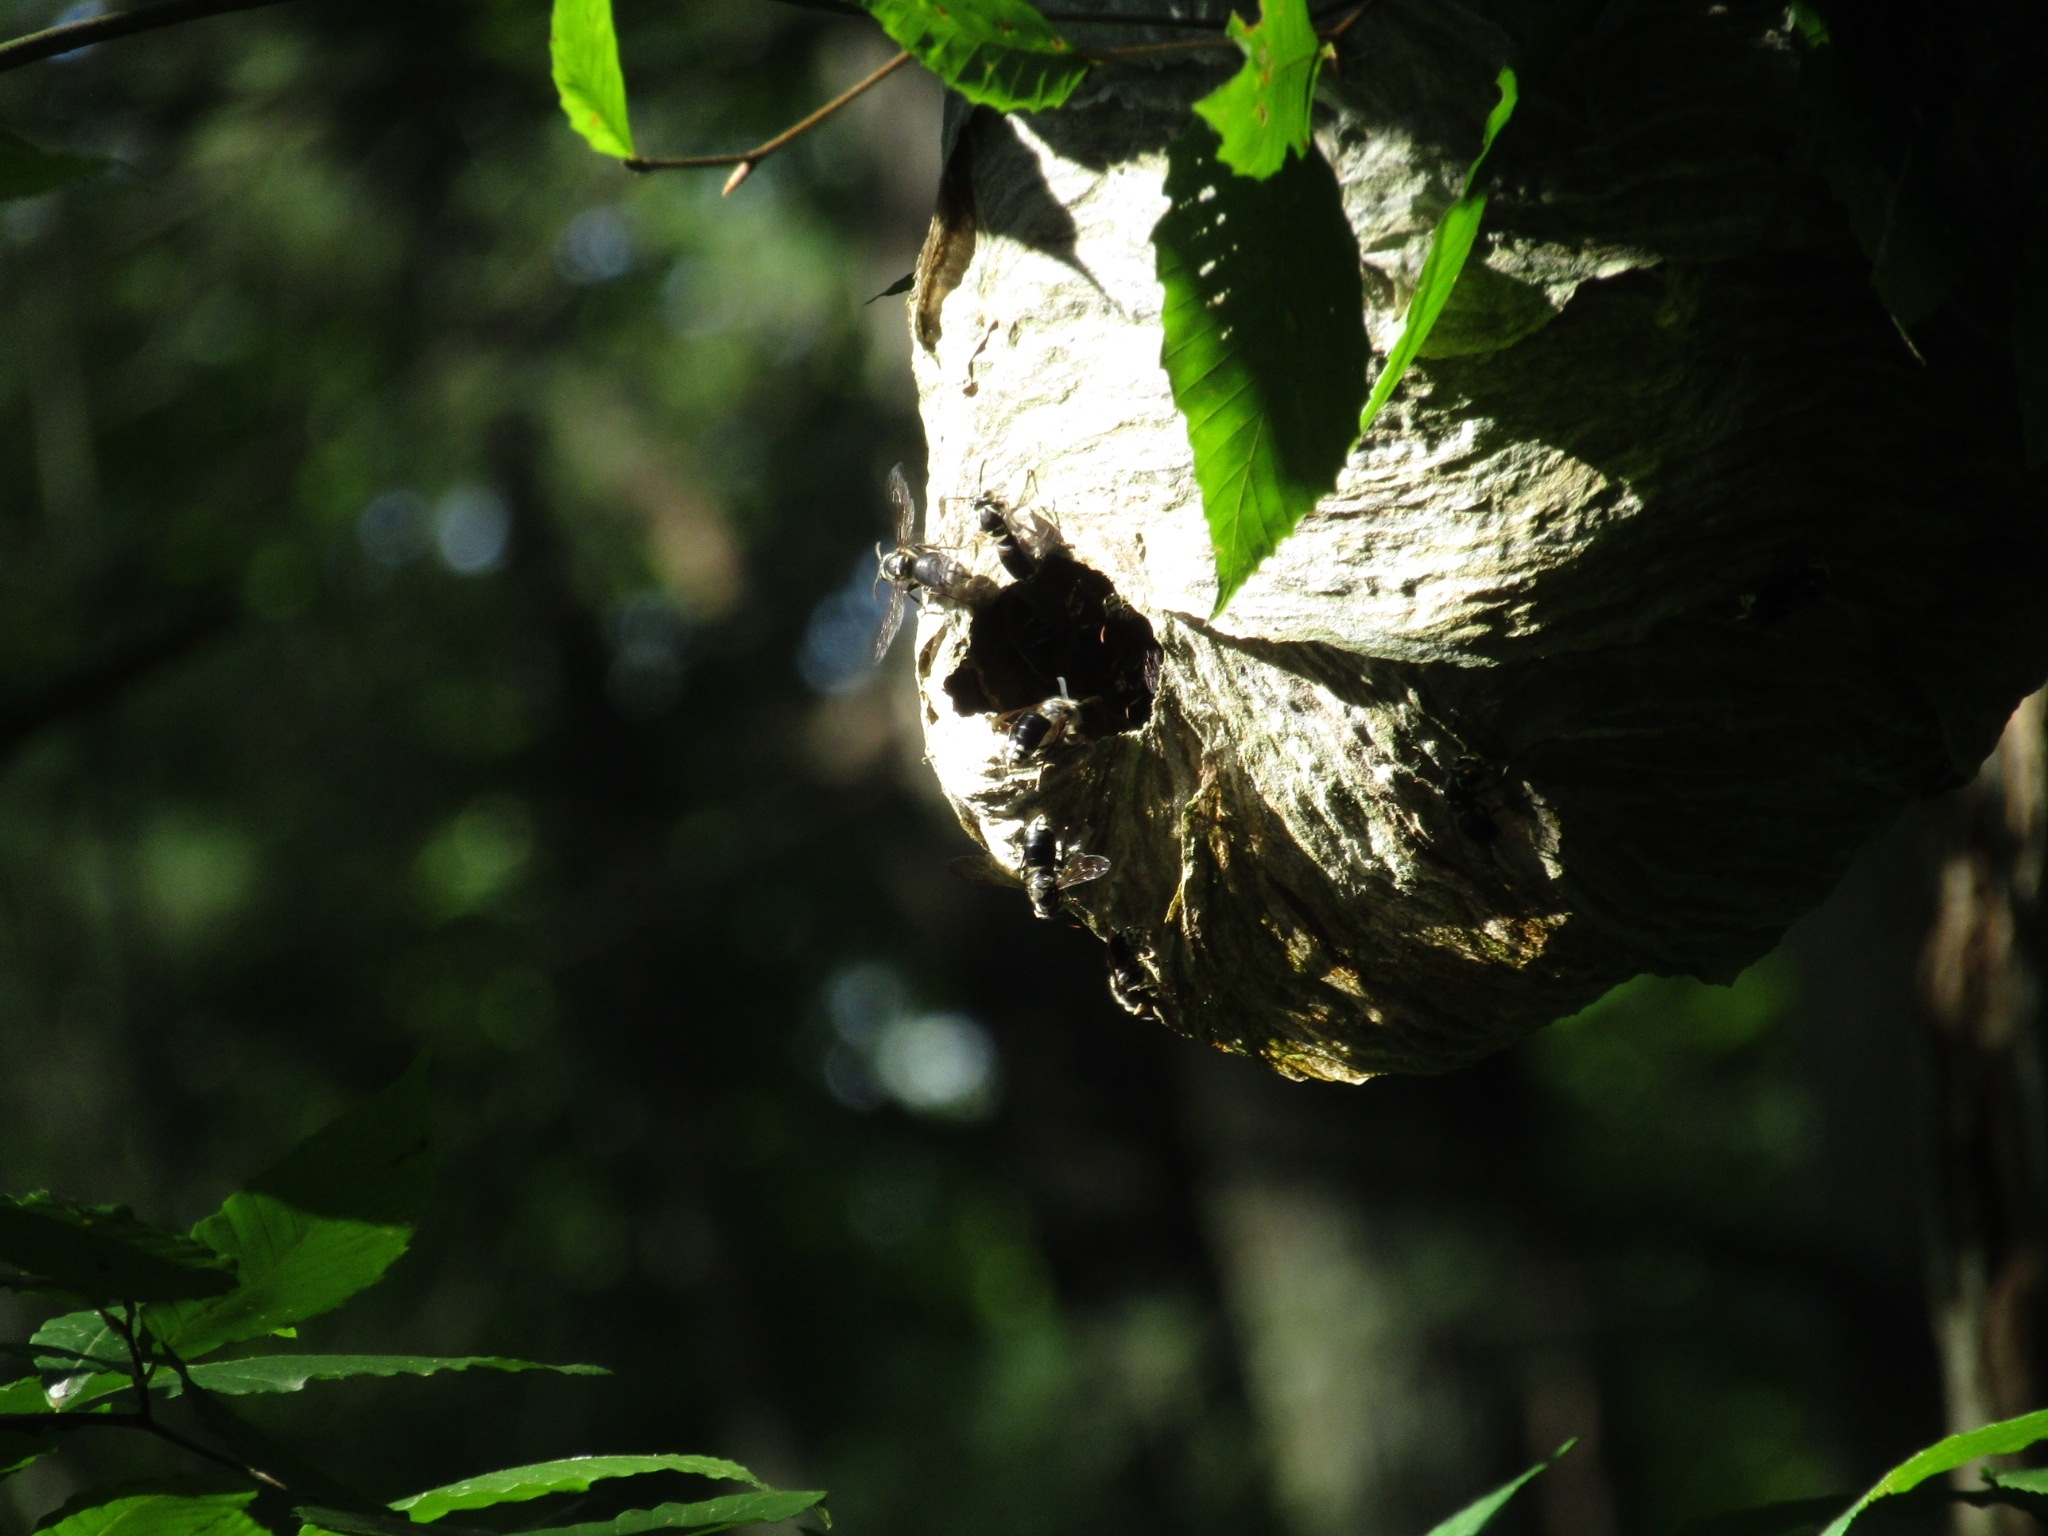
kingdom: Animalia
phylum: Arthropoda
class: Insecta
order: Hymenoptera
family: Vespidae
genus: Dolichovespula
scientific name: Dolichovespula maculata
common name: Bald-faced hornet
